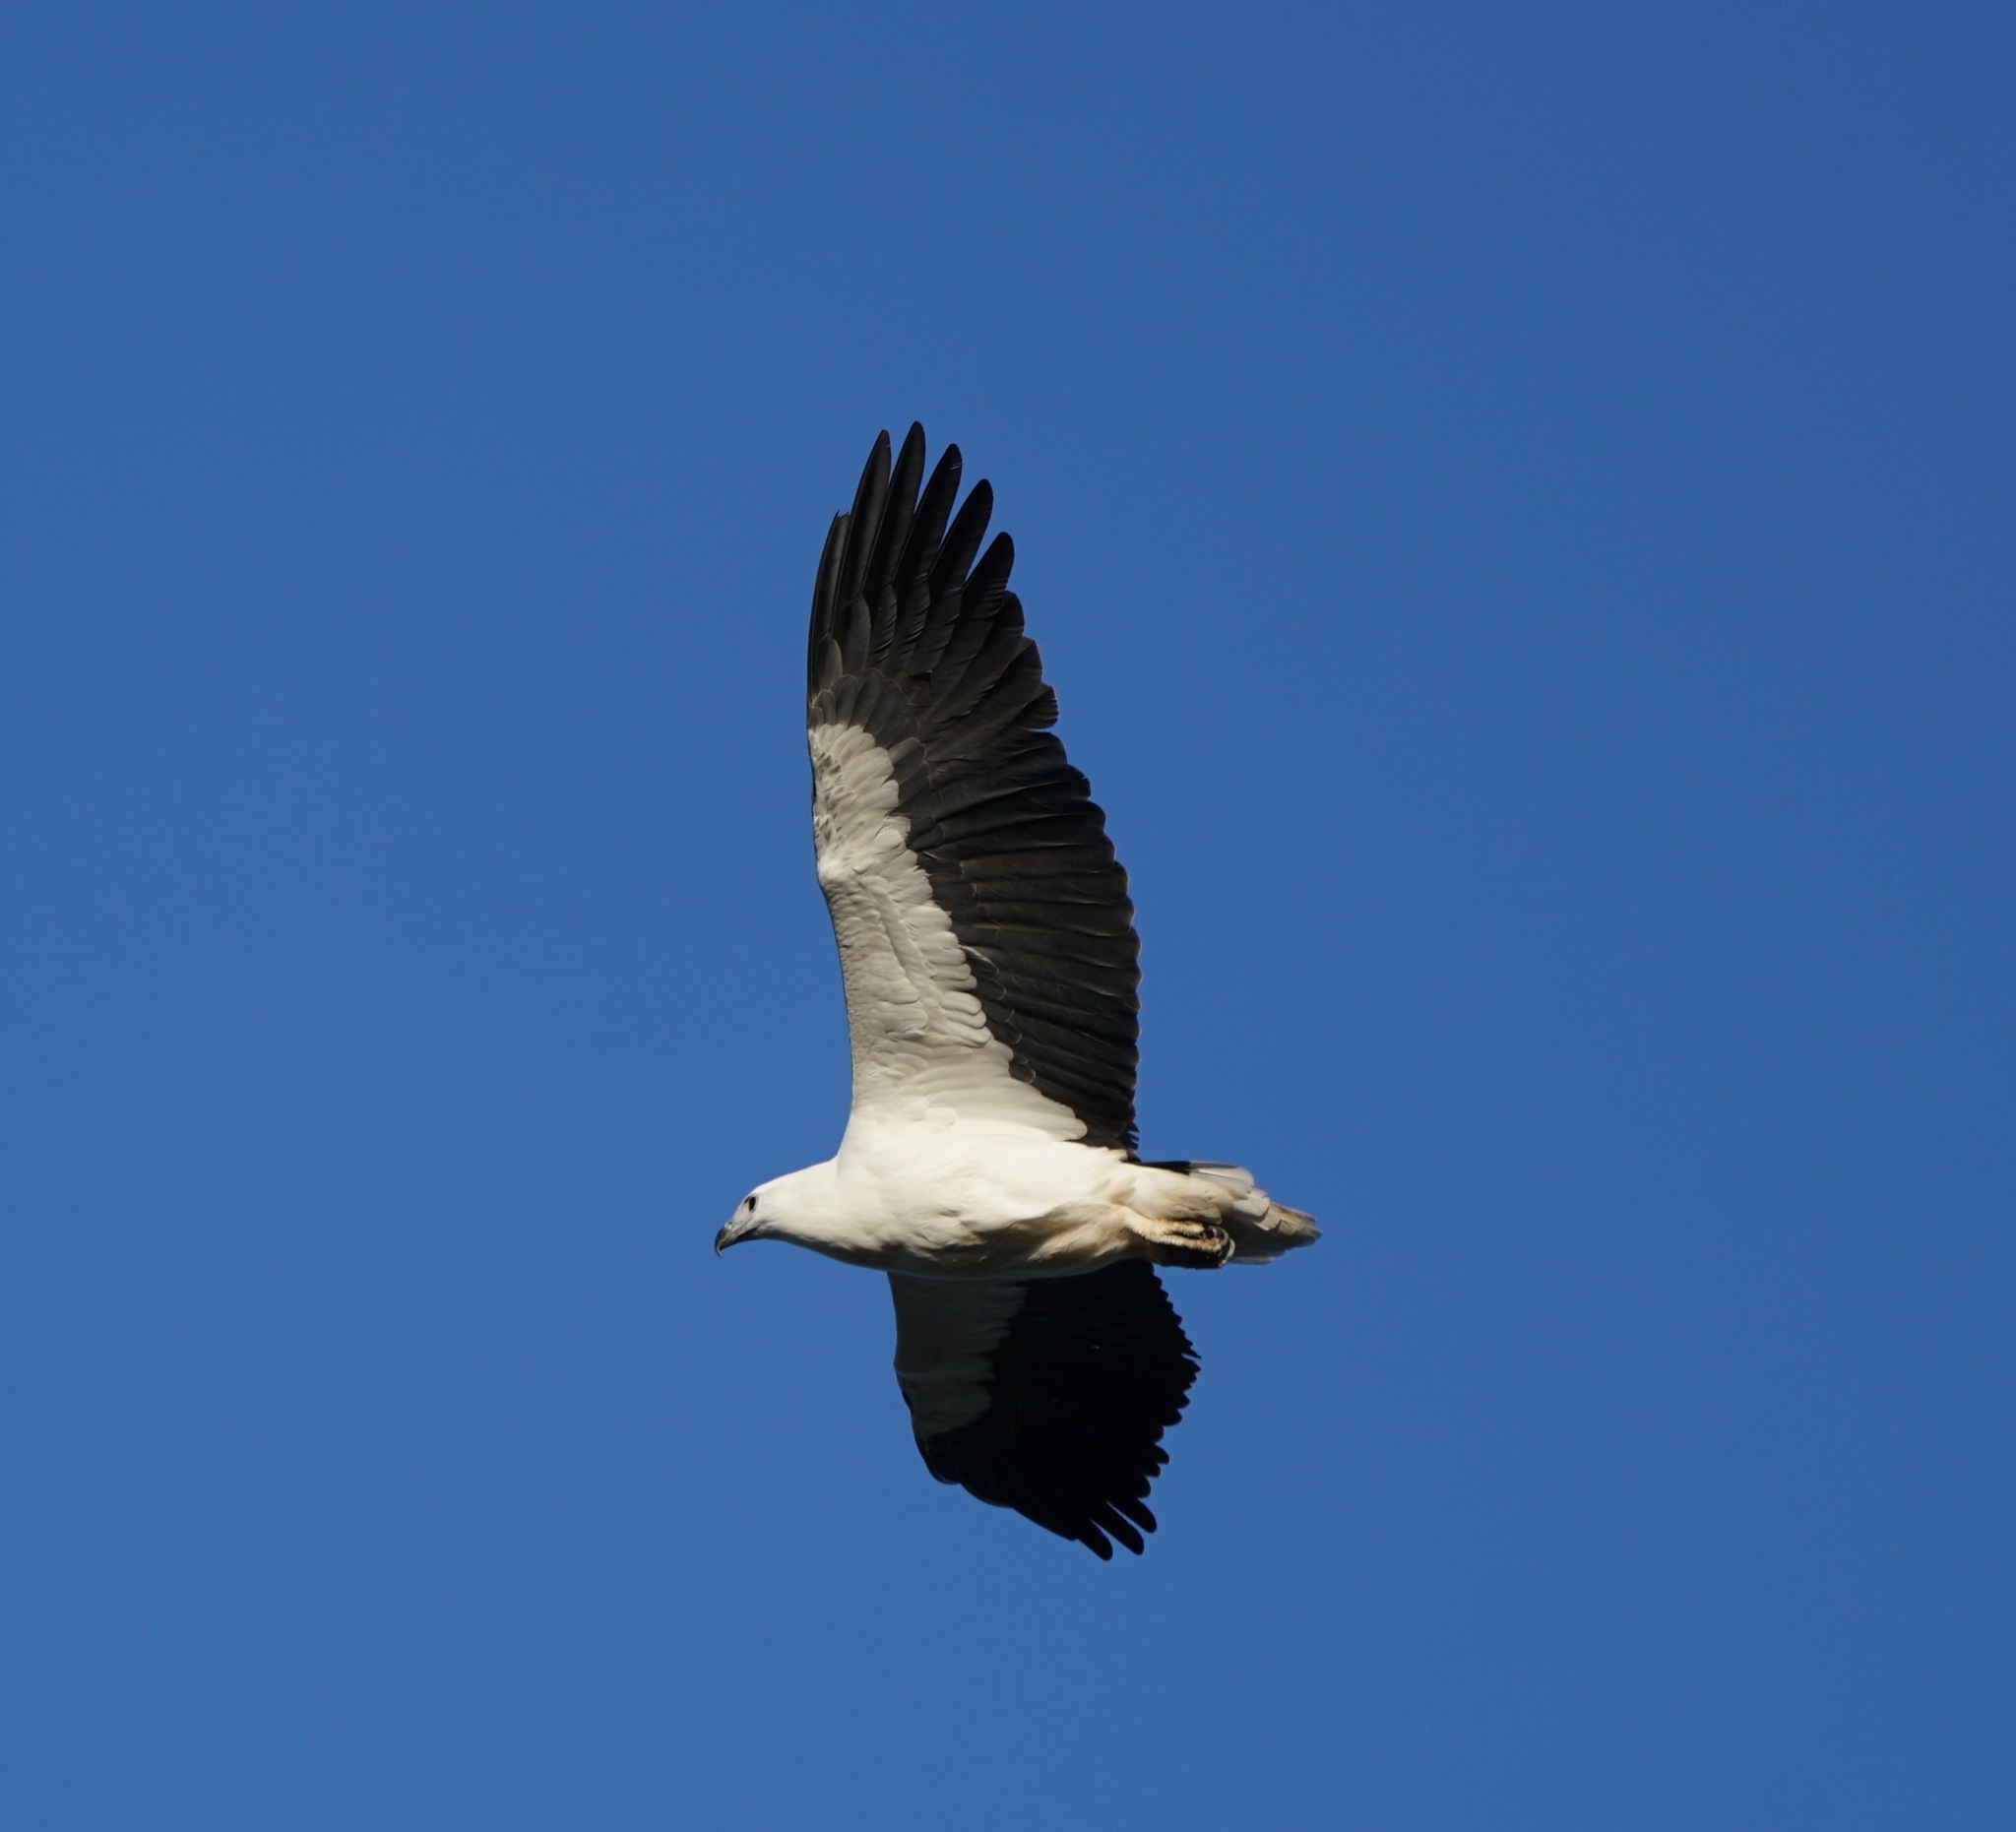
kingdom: Animalia
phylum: Chordata
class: Aves
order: Accipitriformes
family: Accipitridae
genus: Haliaeetus
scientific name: Haliaeetus leucogaster
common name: White-bellied sea eagle
